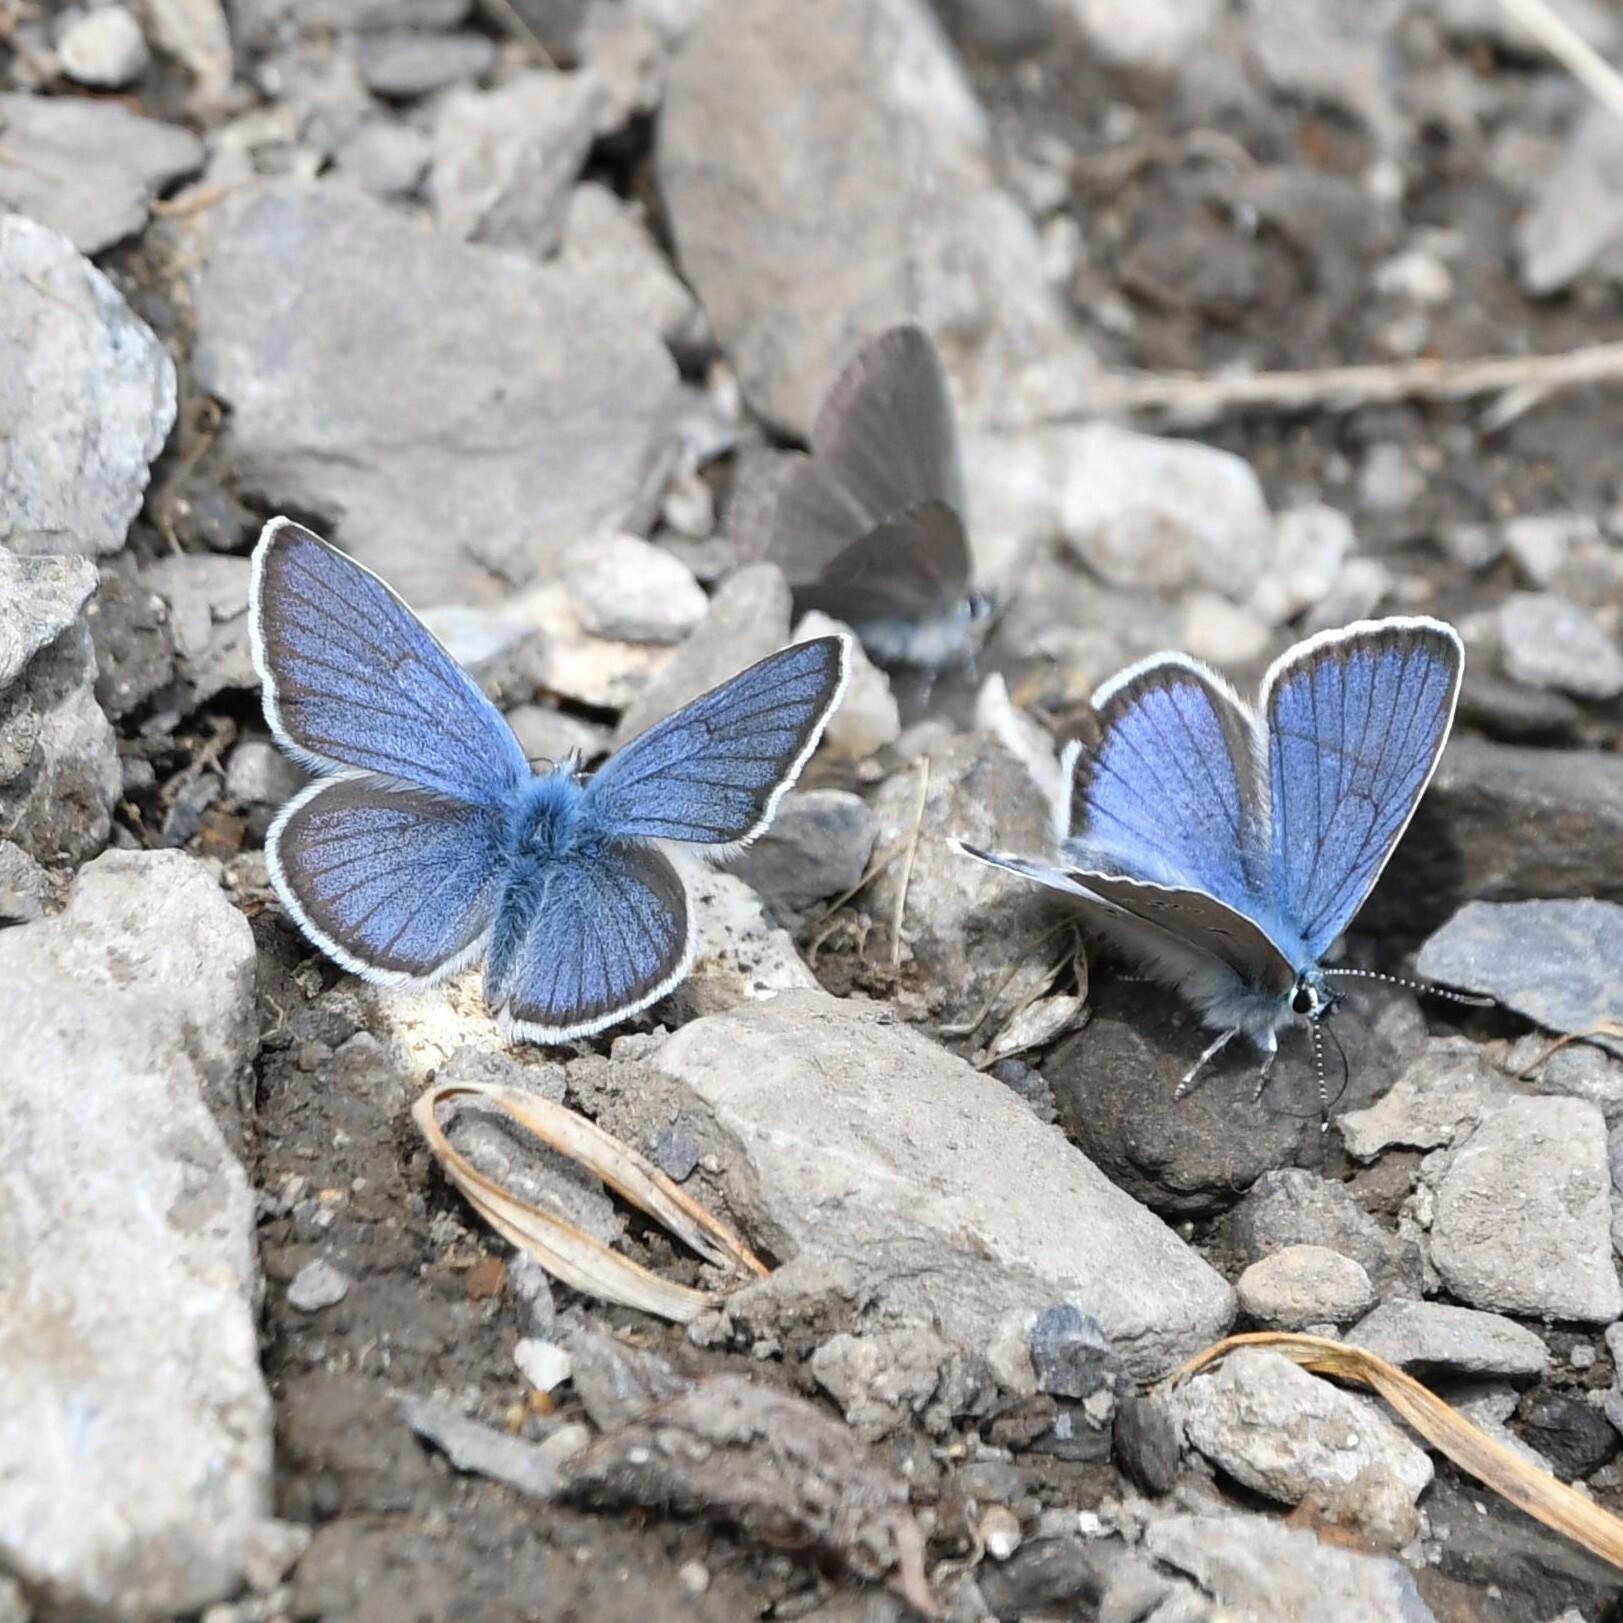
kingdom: Animalia
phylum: Arthropoda
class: Insecta
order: Lepidoptera
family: Lycaenidae
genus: Cyaniris
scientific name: Cyaniris semiargus
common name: Mazarine blue
